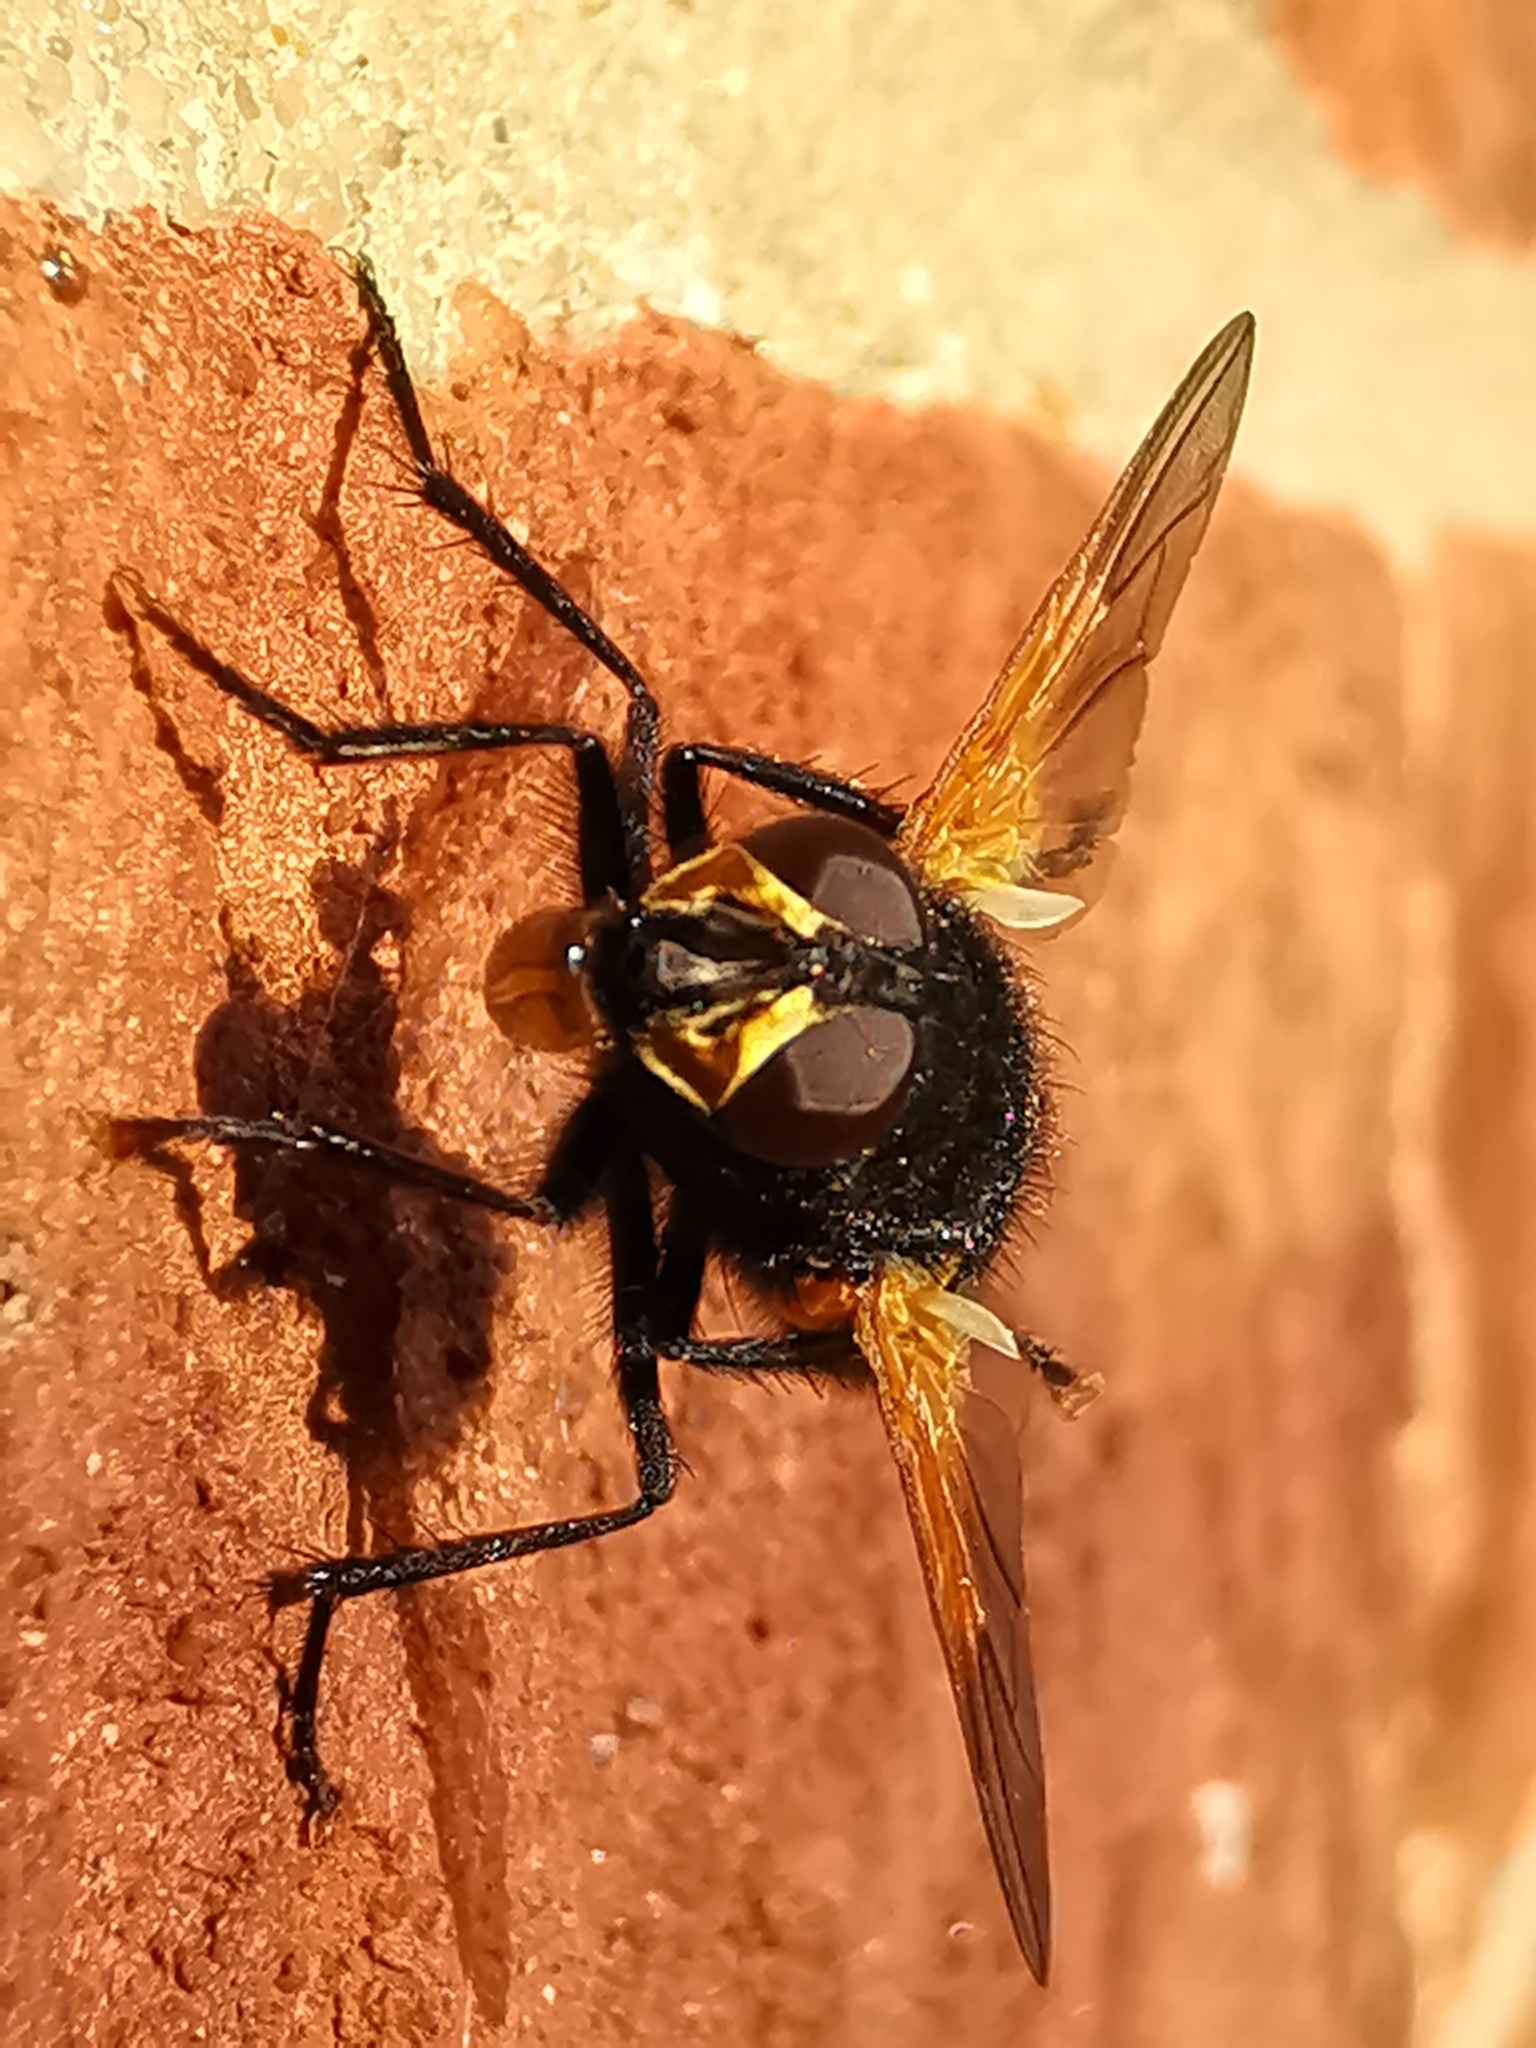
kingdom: Animalia
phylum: Arthropoda
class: Insecta
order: Diptera
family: Muscidae
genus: Mesembrina
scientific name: Mesembrina meridiana
